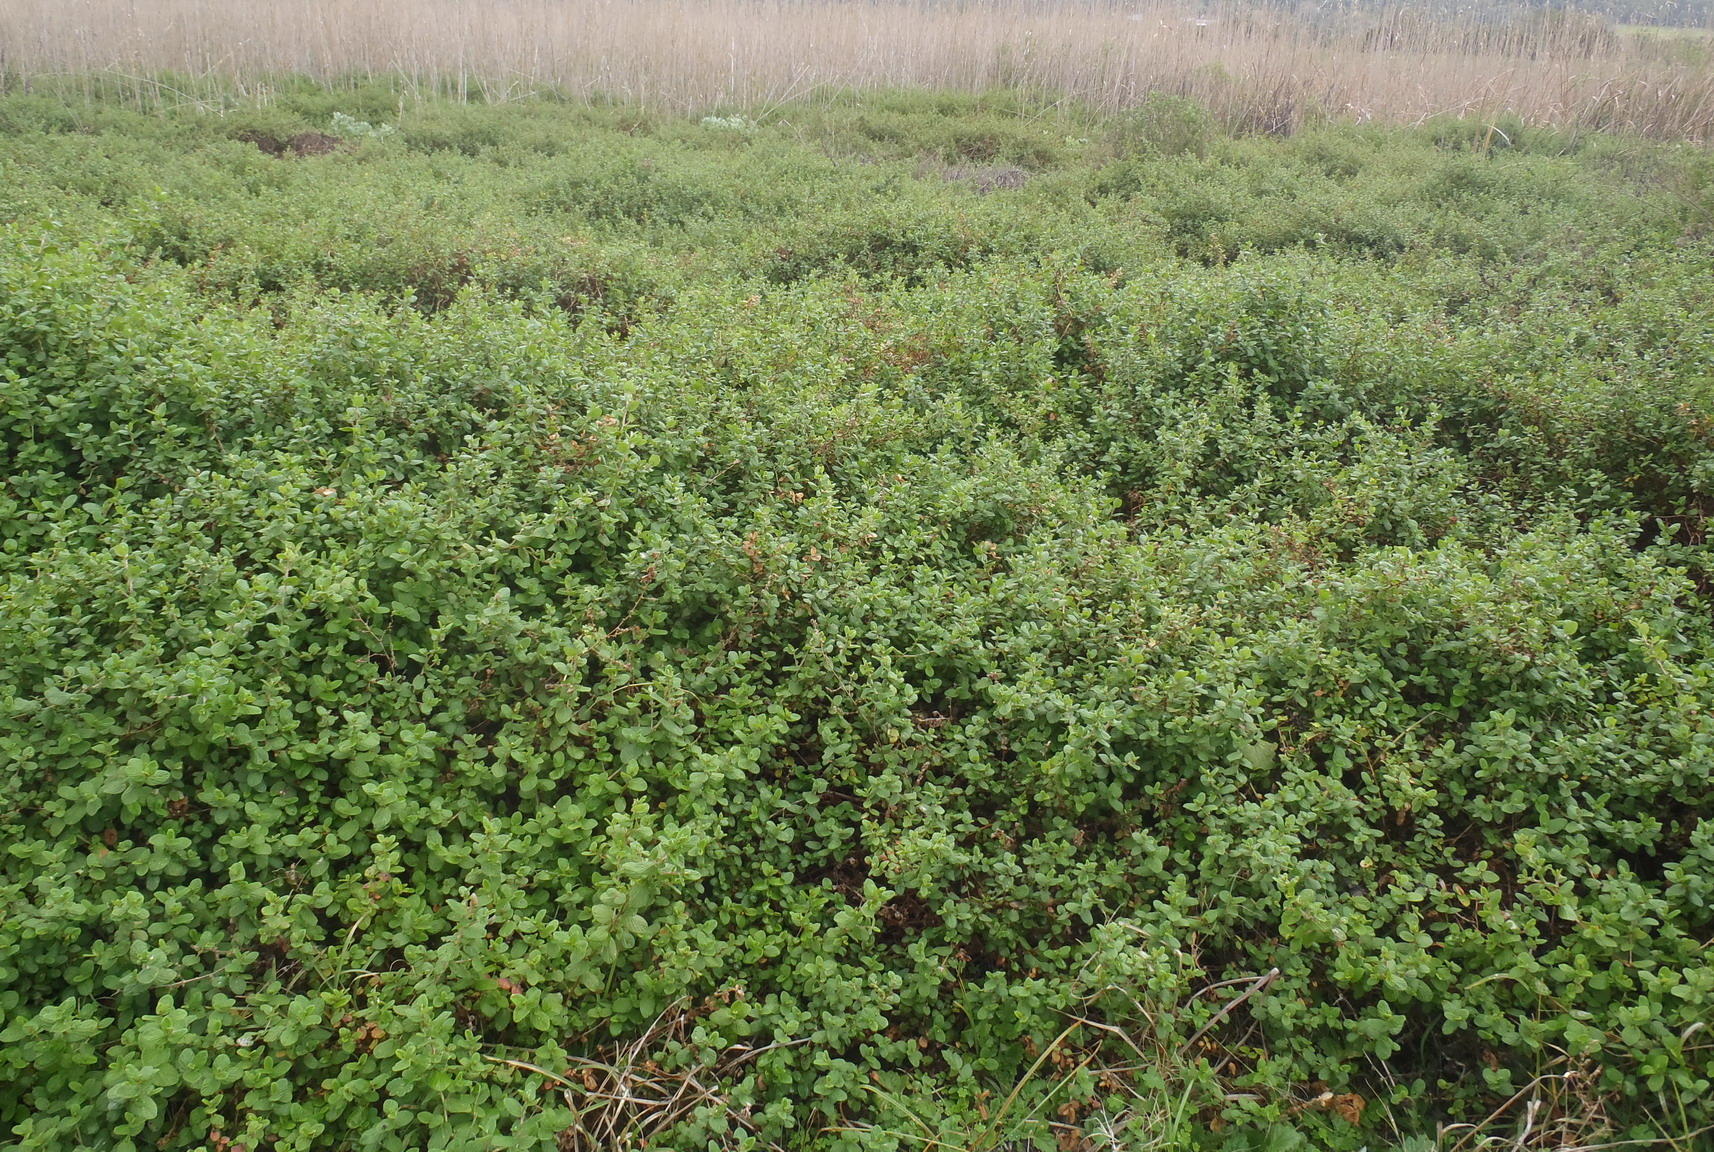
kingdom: Plantae
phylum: Tracheophyta
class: Magnoliopsida
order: Rosales
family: Rosaceae
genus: Cliffortia
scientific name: Cliffortia odorata
